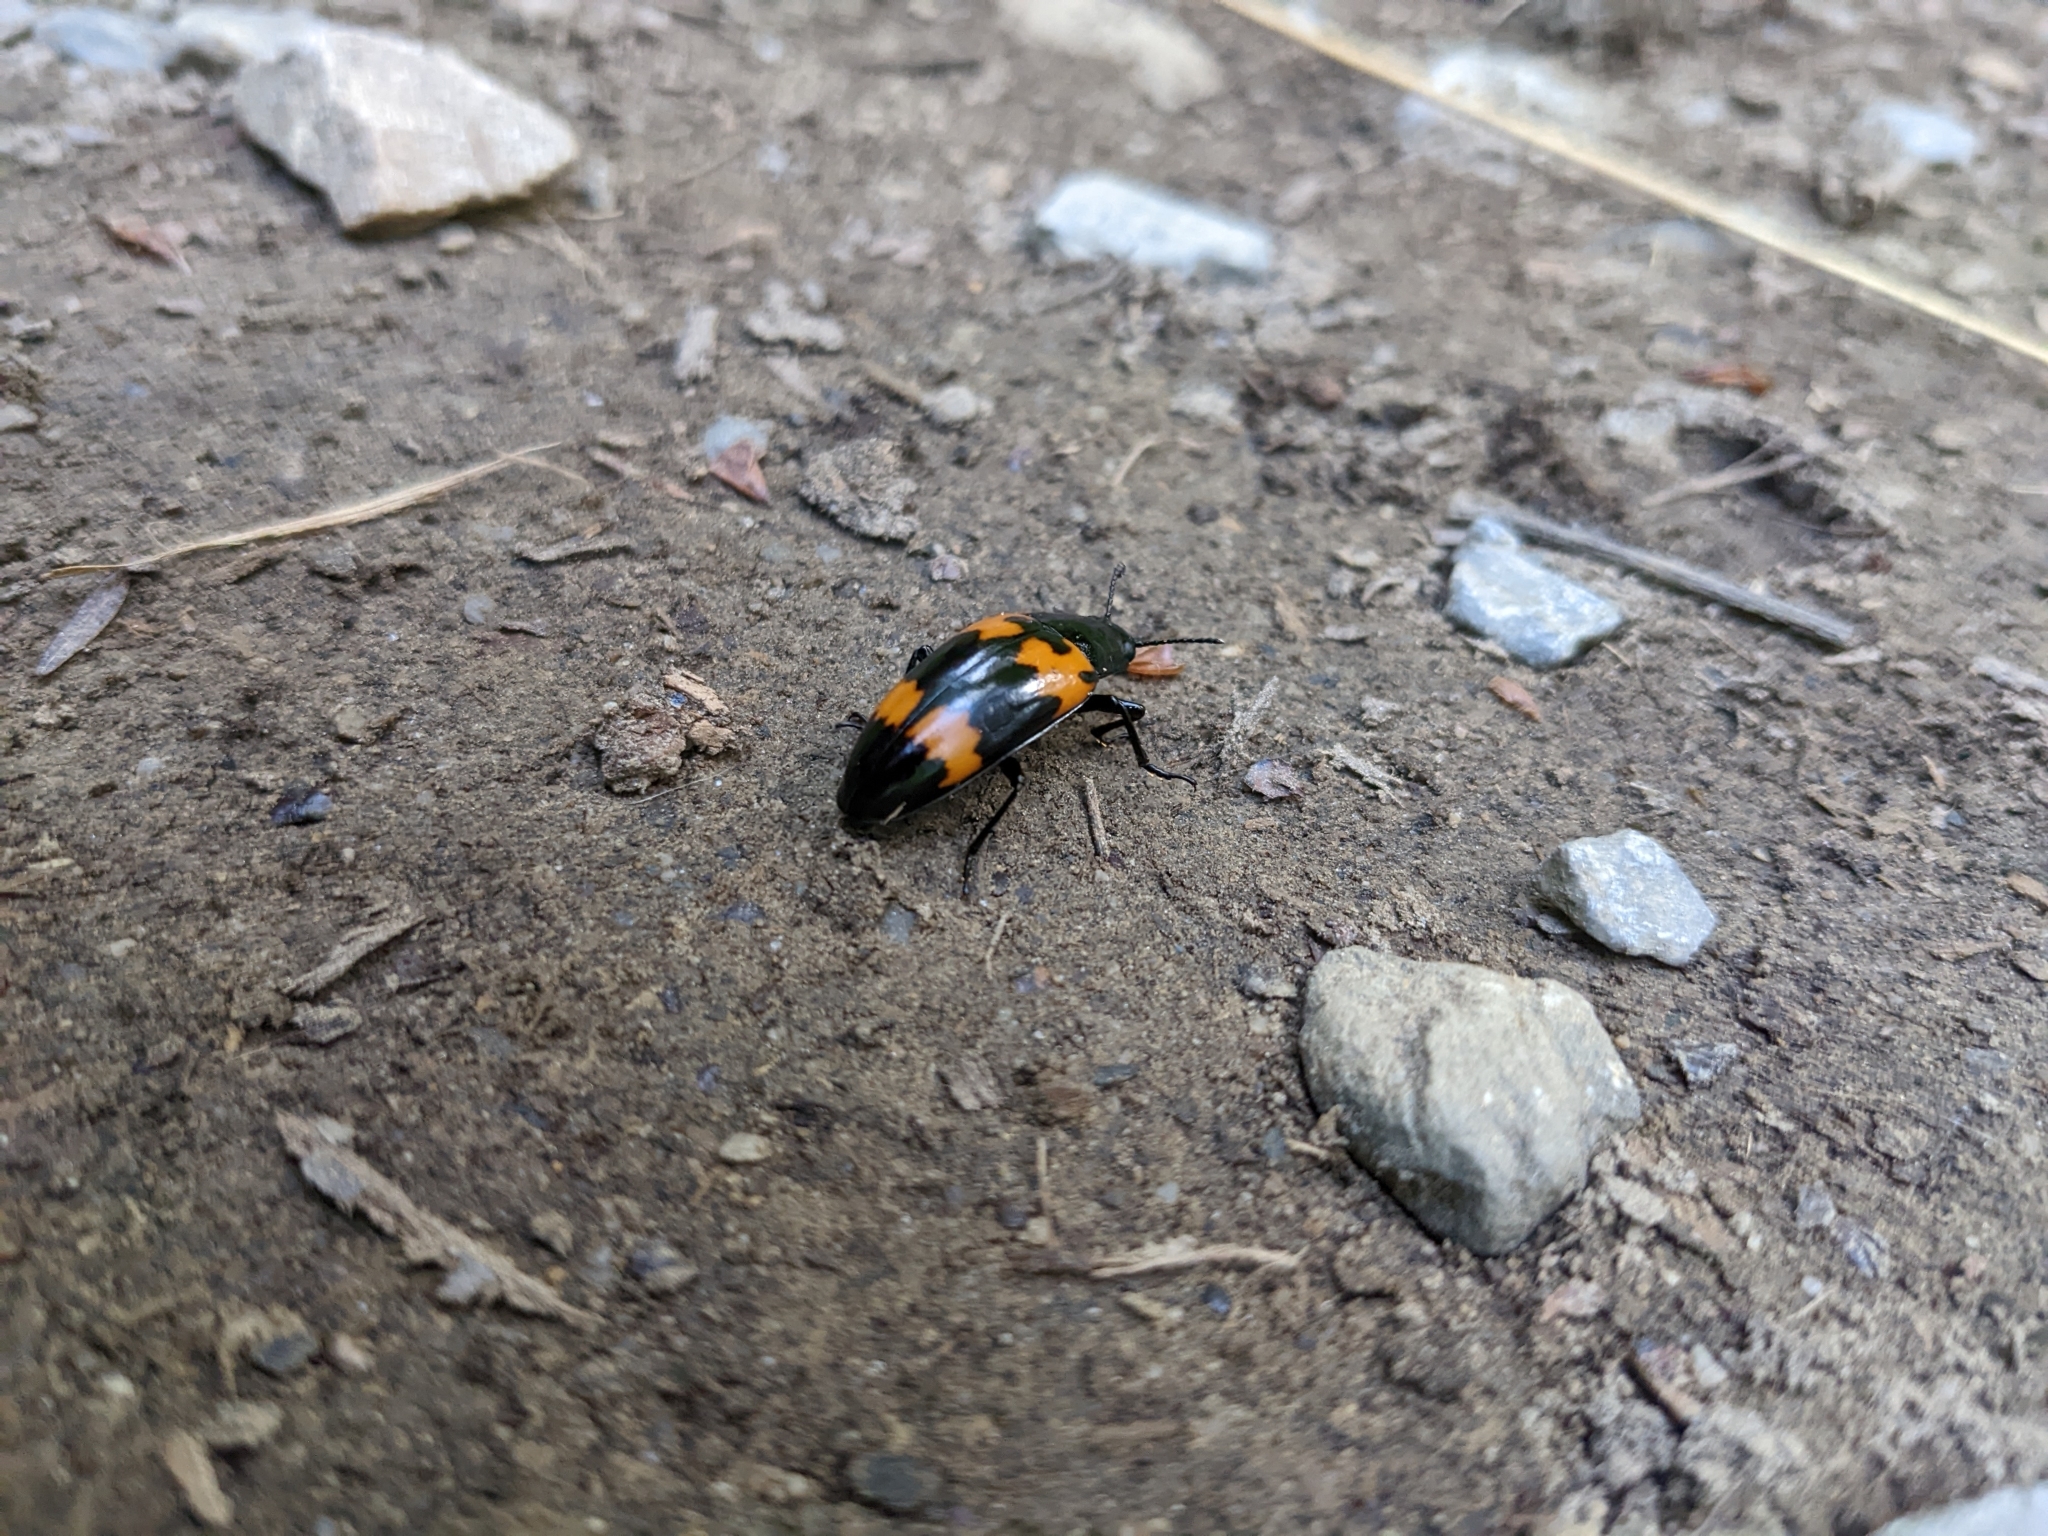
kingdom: Animalia
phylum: Arthropoda
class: Insecta
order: Coleoptera
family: Erotylidae
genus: Megalodacne
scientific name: Megalodacne heros
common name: Pleasing fungus beetle
